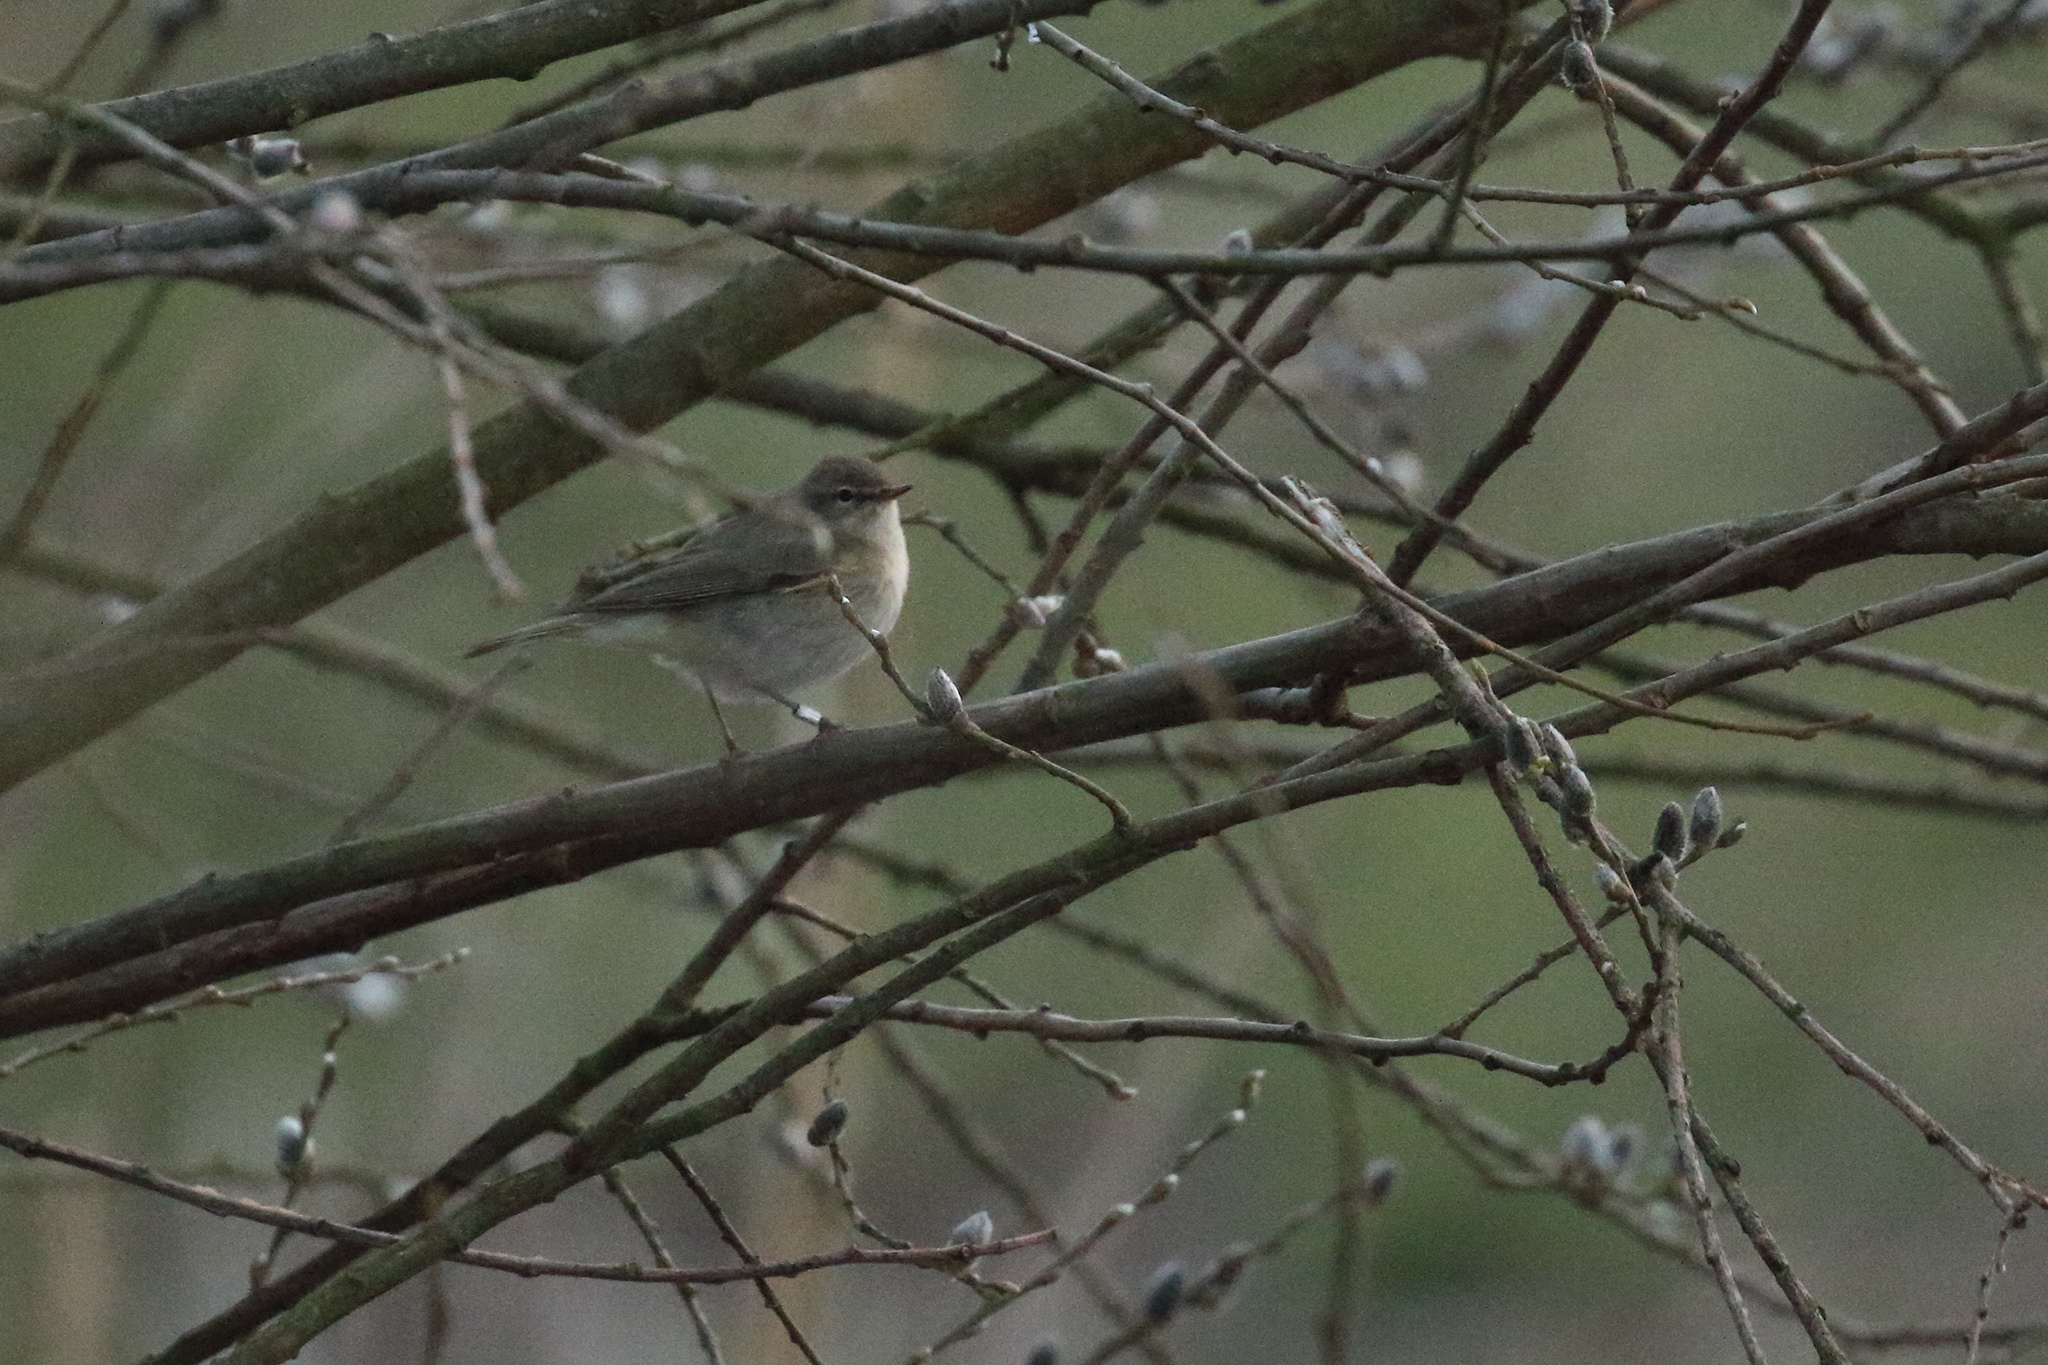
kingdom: Animalia
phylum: Chordata
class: Aves
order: Passeriformes
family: Phylloscopidae
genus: Phylloscopus
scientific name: Phylloscopus collybita
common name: Common chiffchaff
